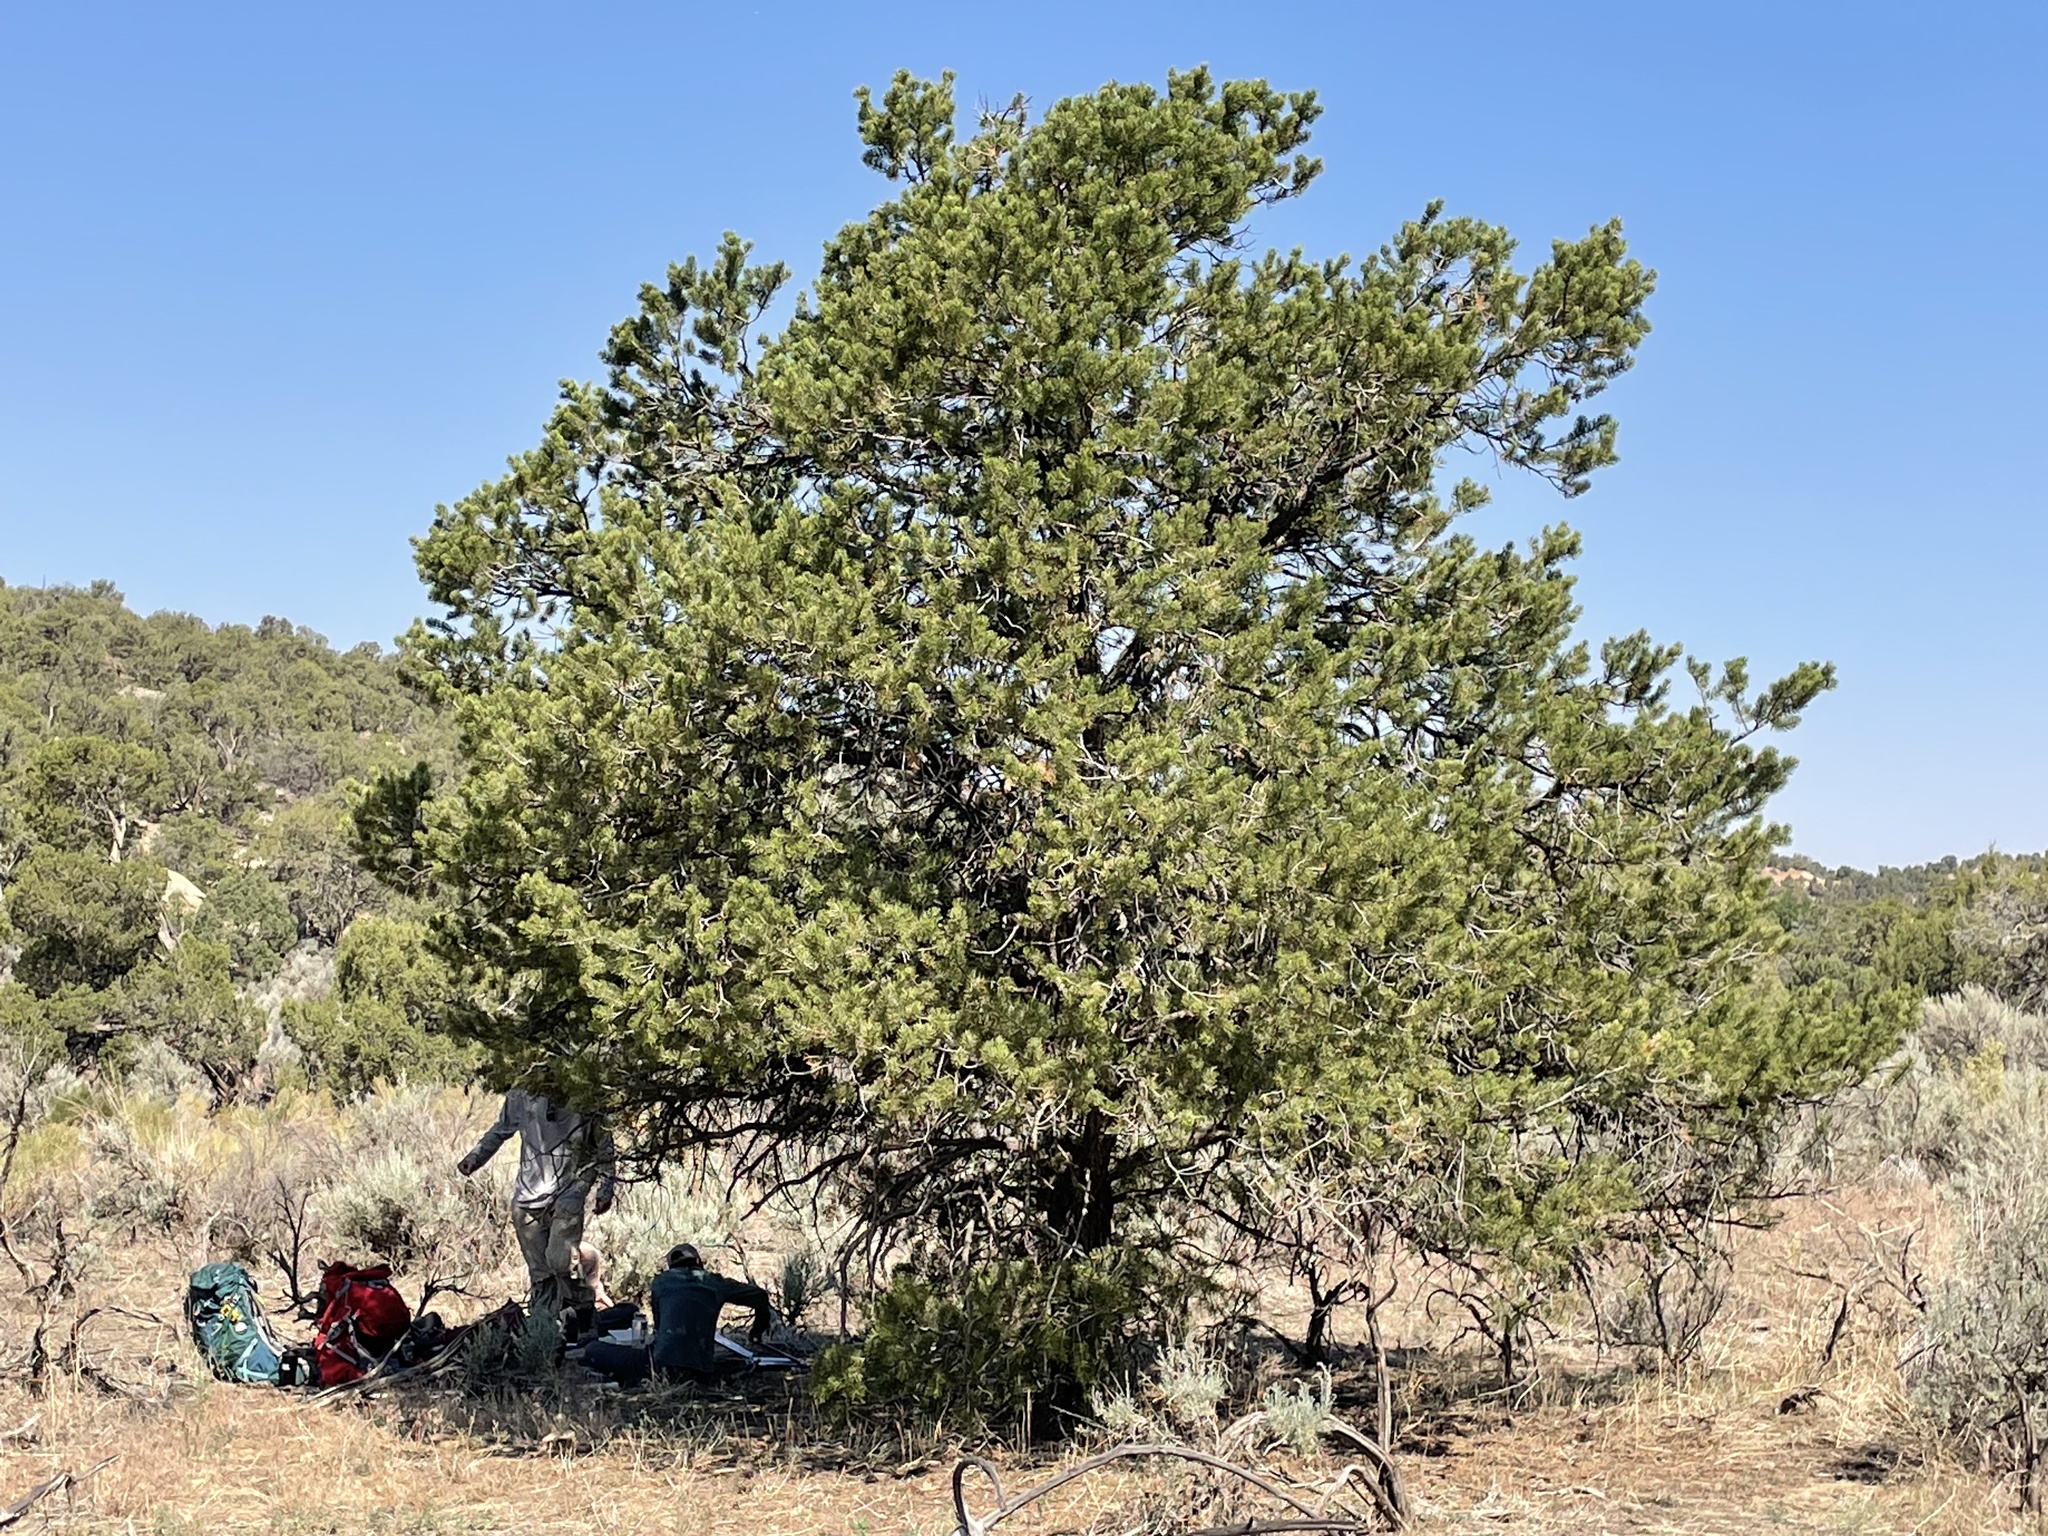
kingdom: Plantae
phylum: Tracheophyta
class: Pinopsida
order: Pinales
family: Pinaceae
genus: Pinus
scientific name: Pinus edulis
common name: Colorado pinyon
